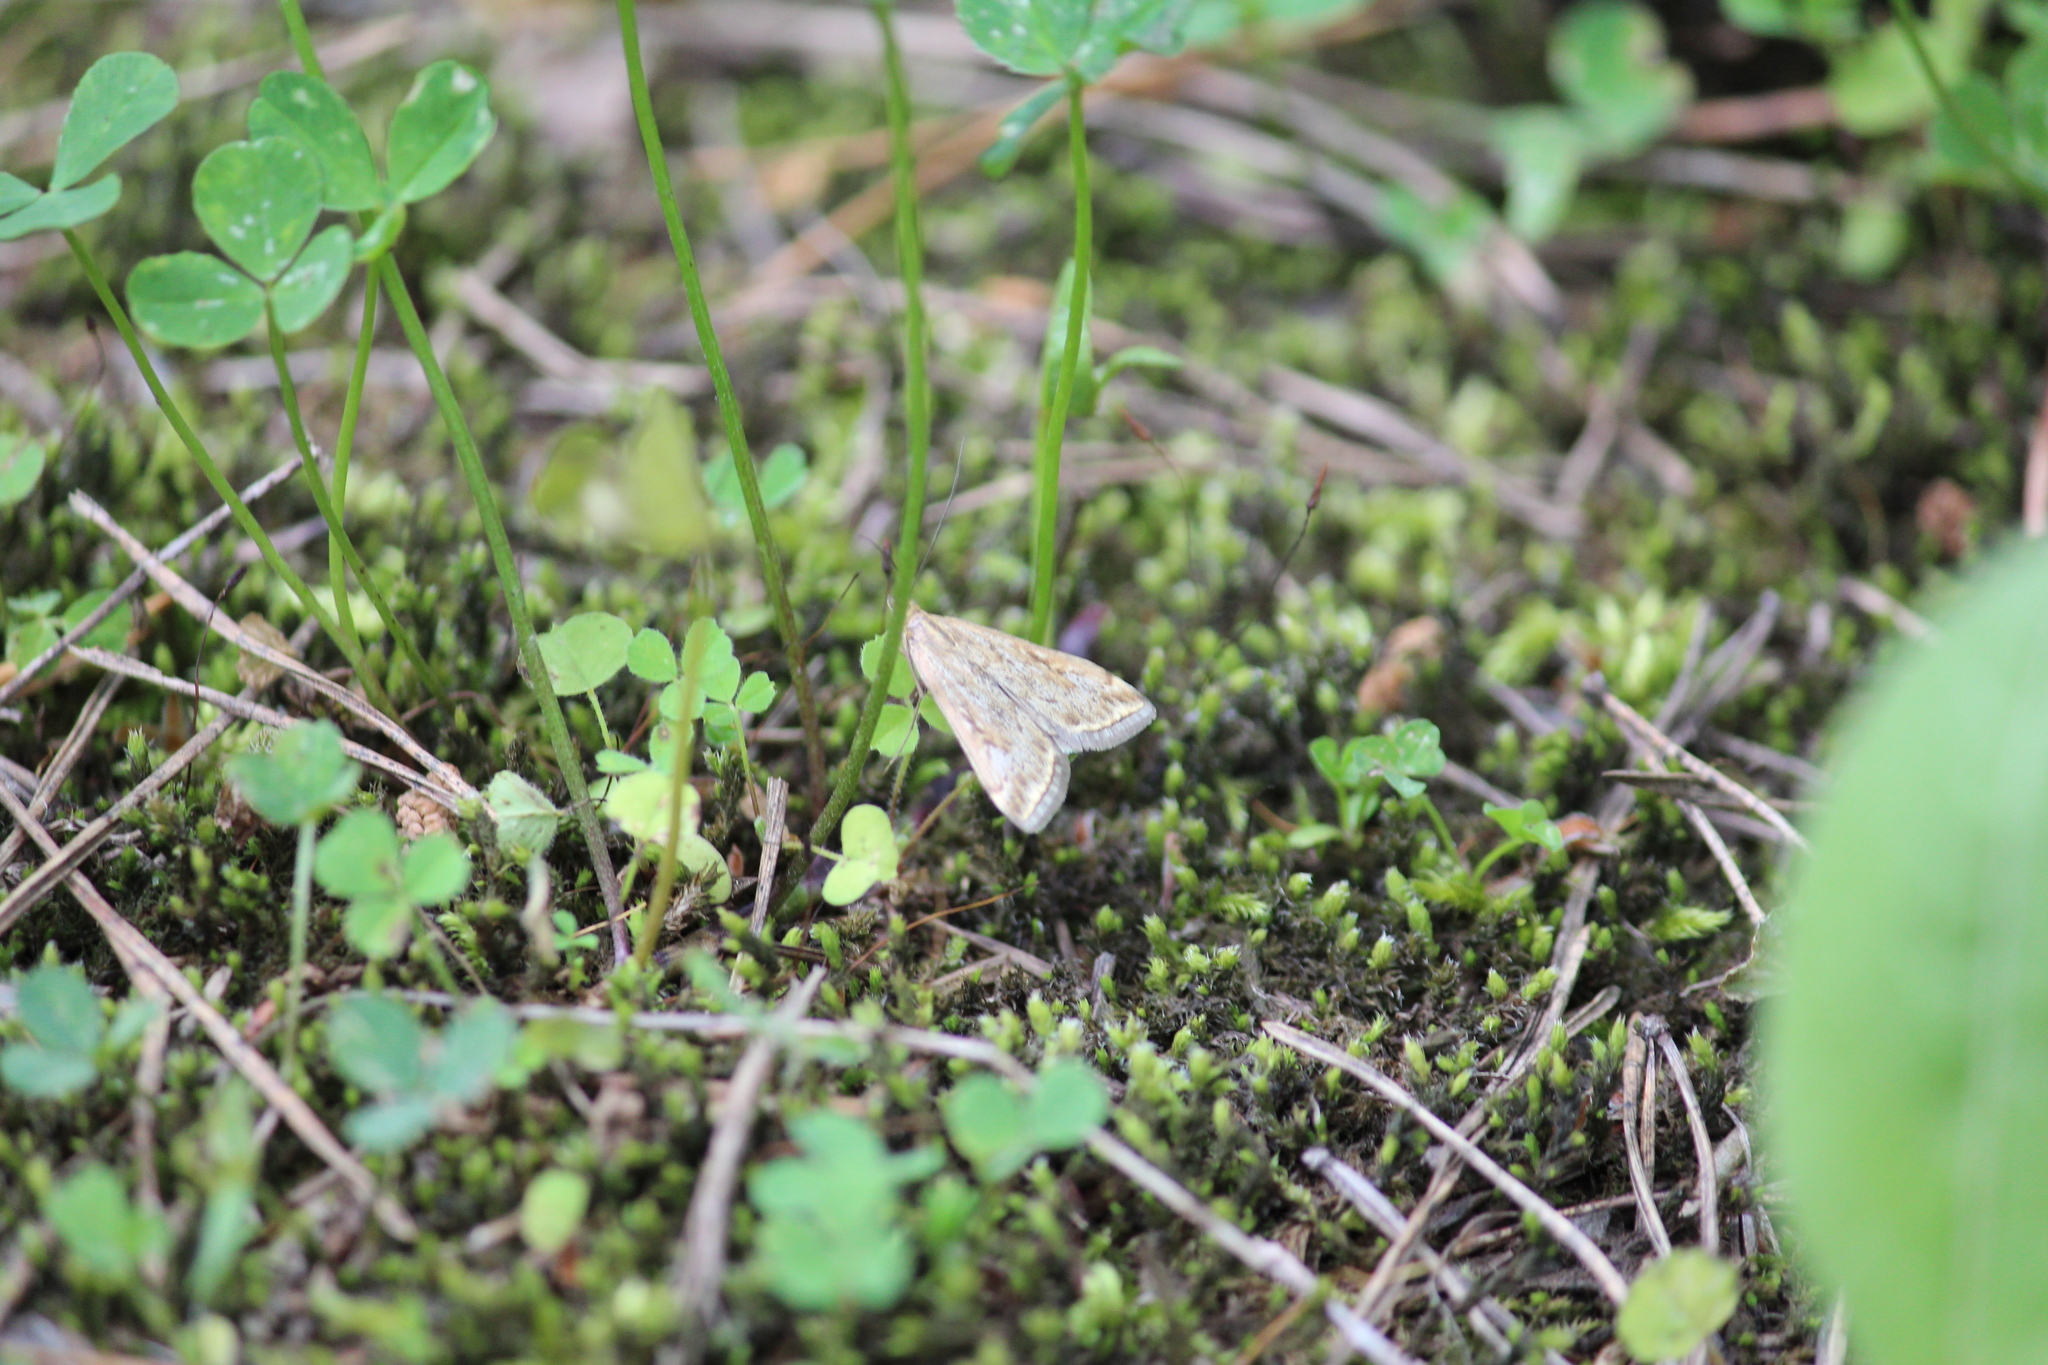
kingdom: Animalia
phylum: Arthropoda
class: Insecta
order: Lepidoptera
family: Crambidae
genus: Loxostege
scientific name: Loxostege sticticalis
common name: Crambid moth
